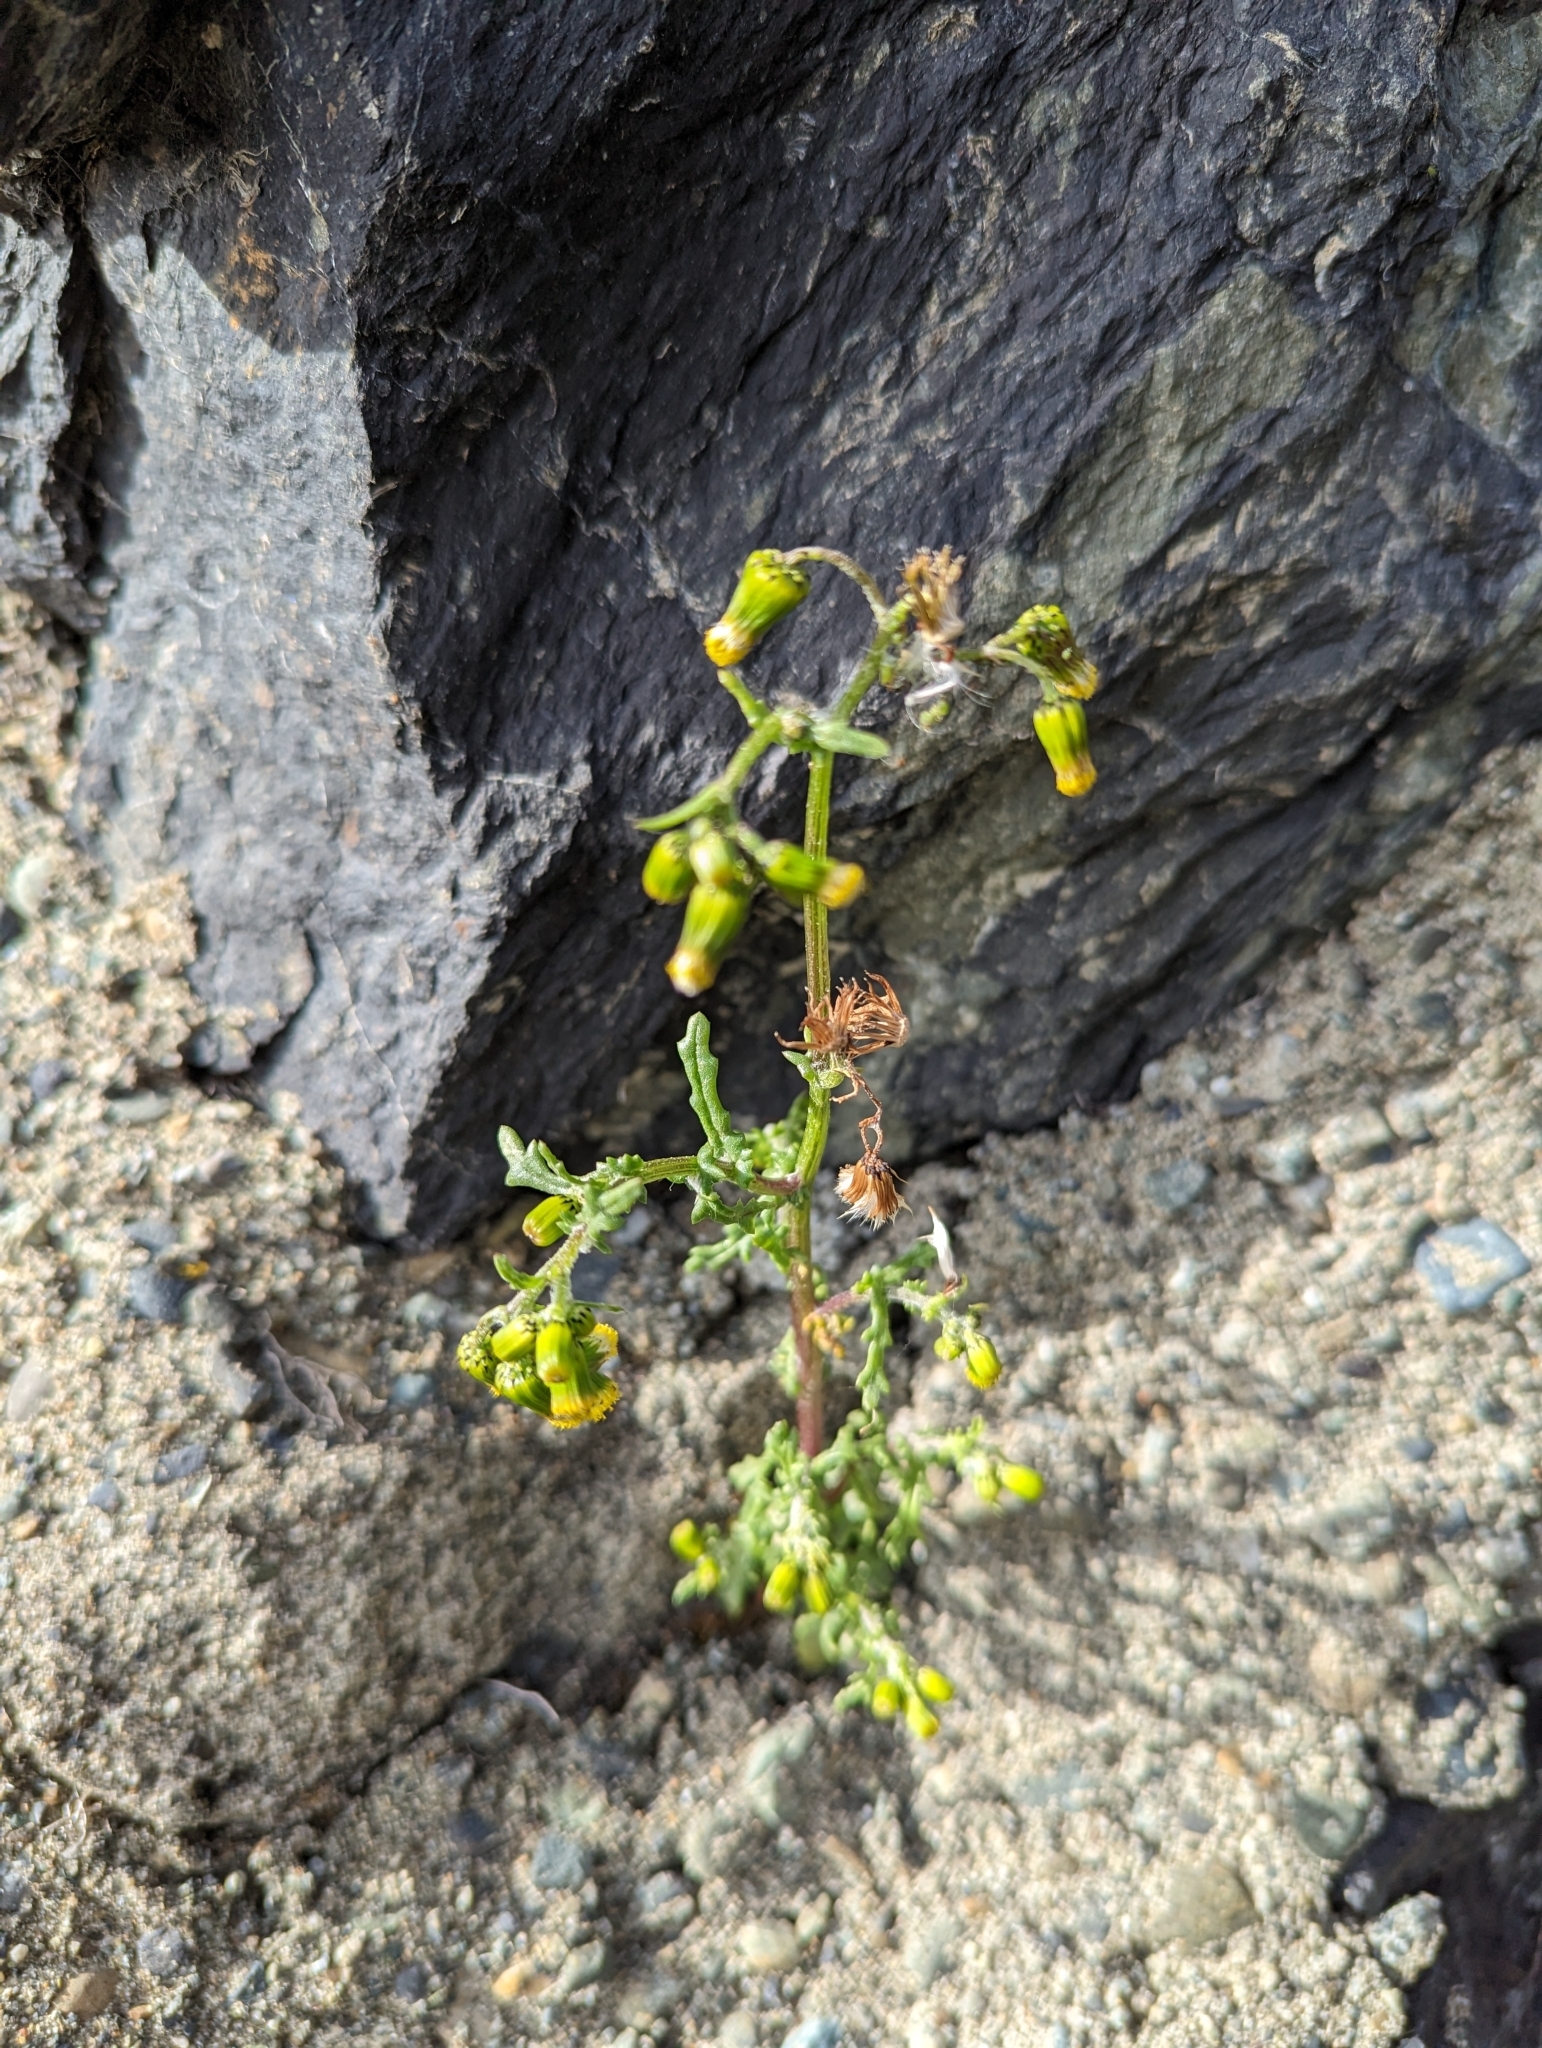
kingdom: Plantae
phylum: Tracheophyta
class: Magnoliopsida
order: Asterales
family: Asteraceae
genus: Senecio
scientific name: Senecio vulgaris
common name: Old-man-in-the-spring
